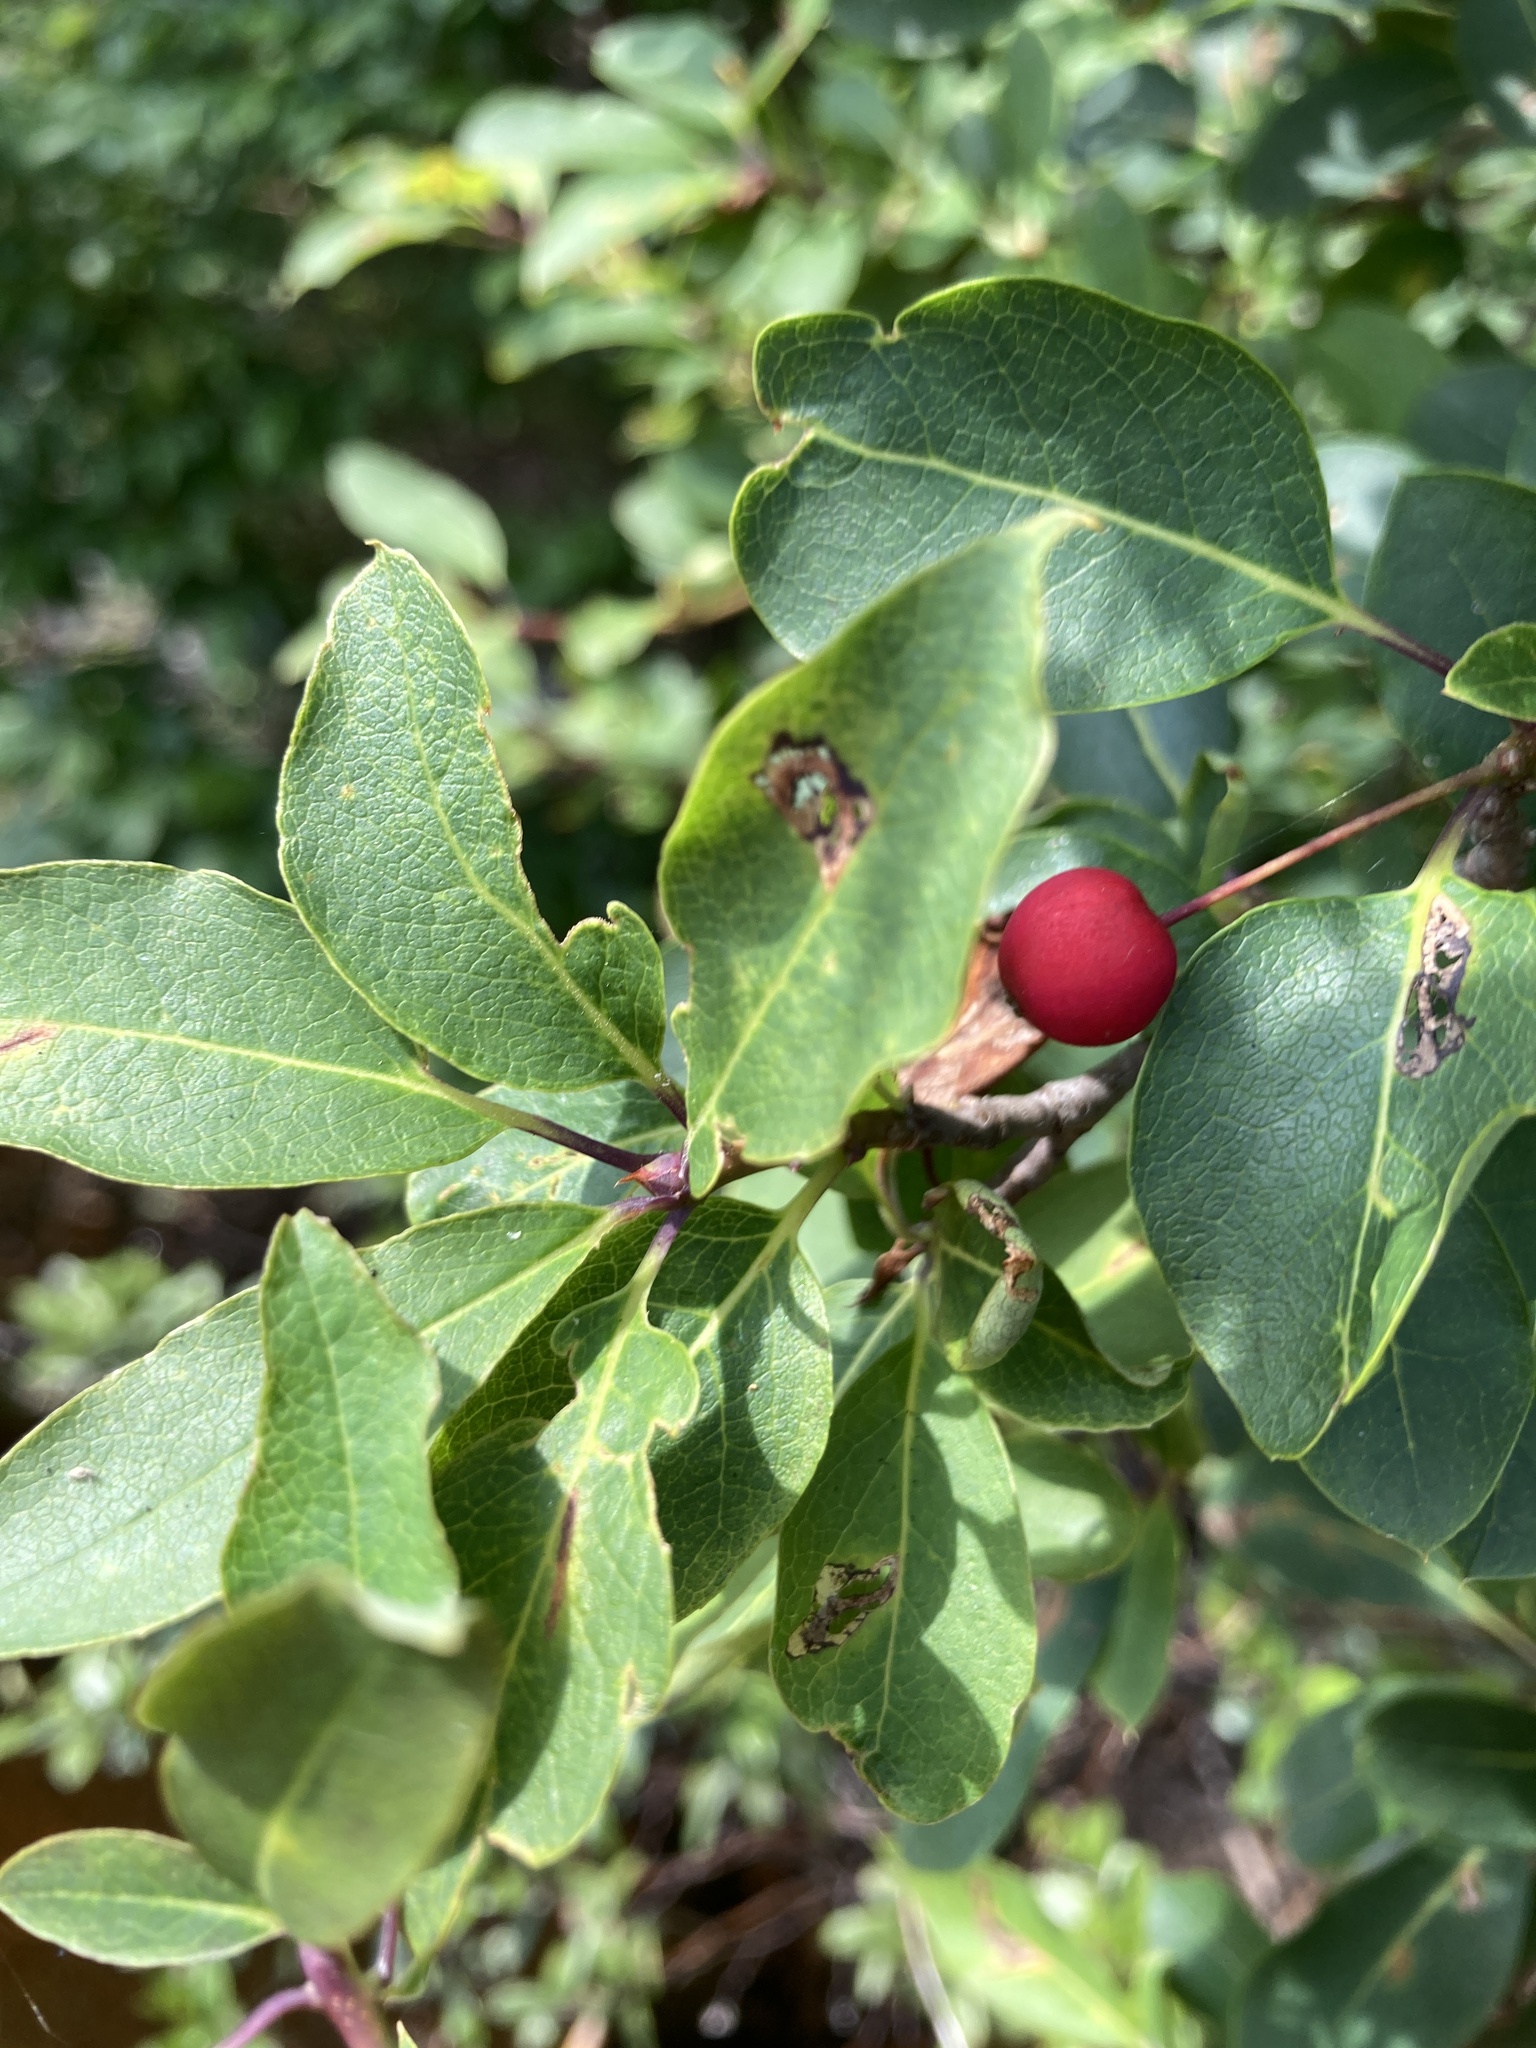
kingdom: Plantae
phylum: Tracheophyta
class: Magnoliopsida
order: Aquifoliales
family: Aquifoliaceae
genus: Ilex
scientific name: Ilex mucronata
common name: Catberry
